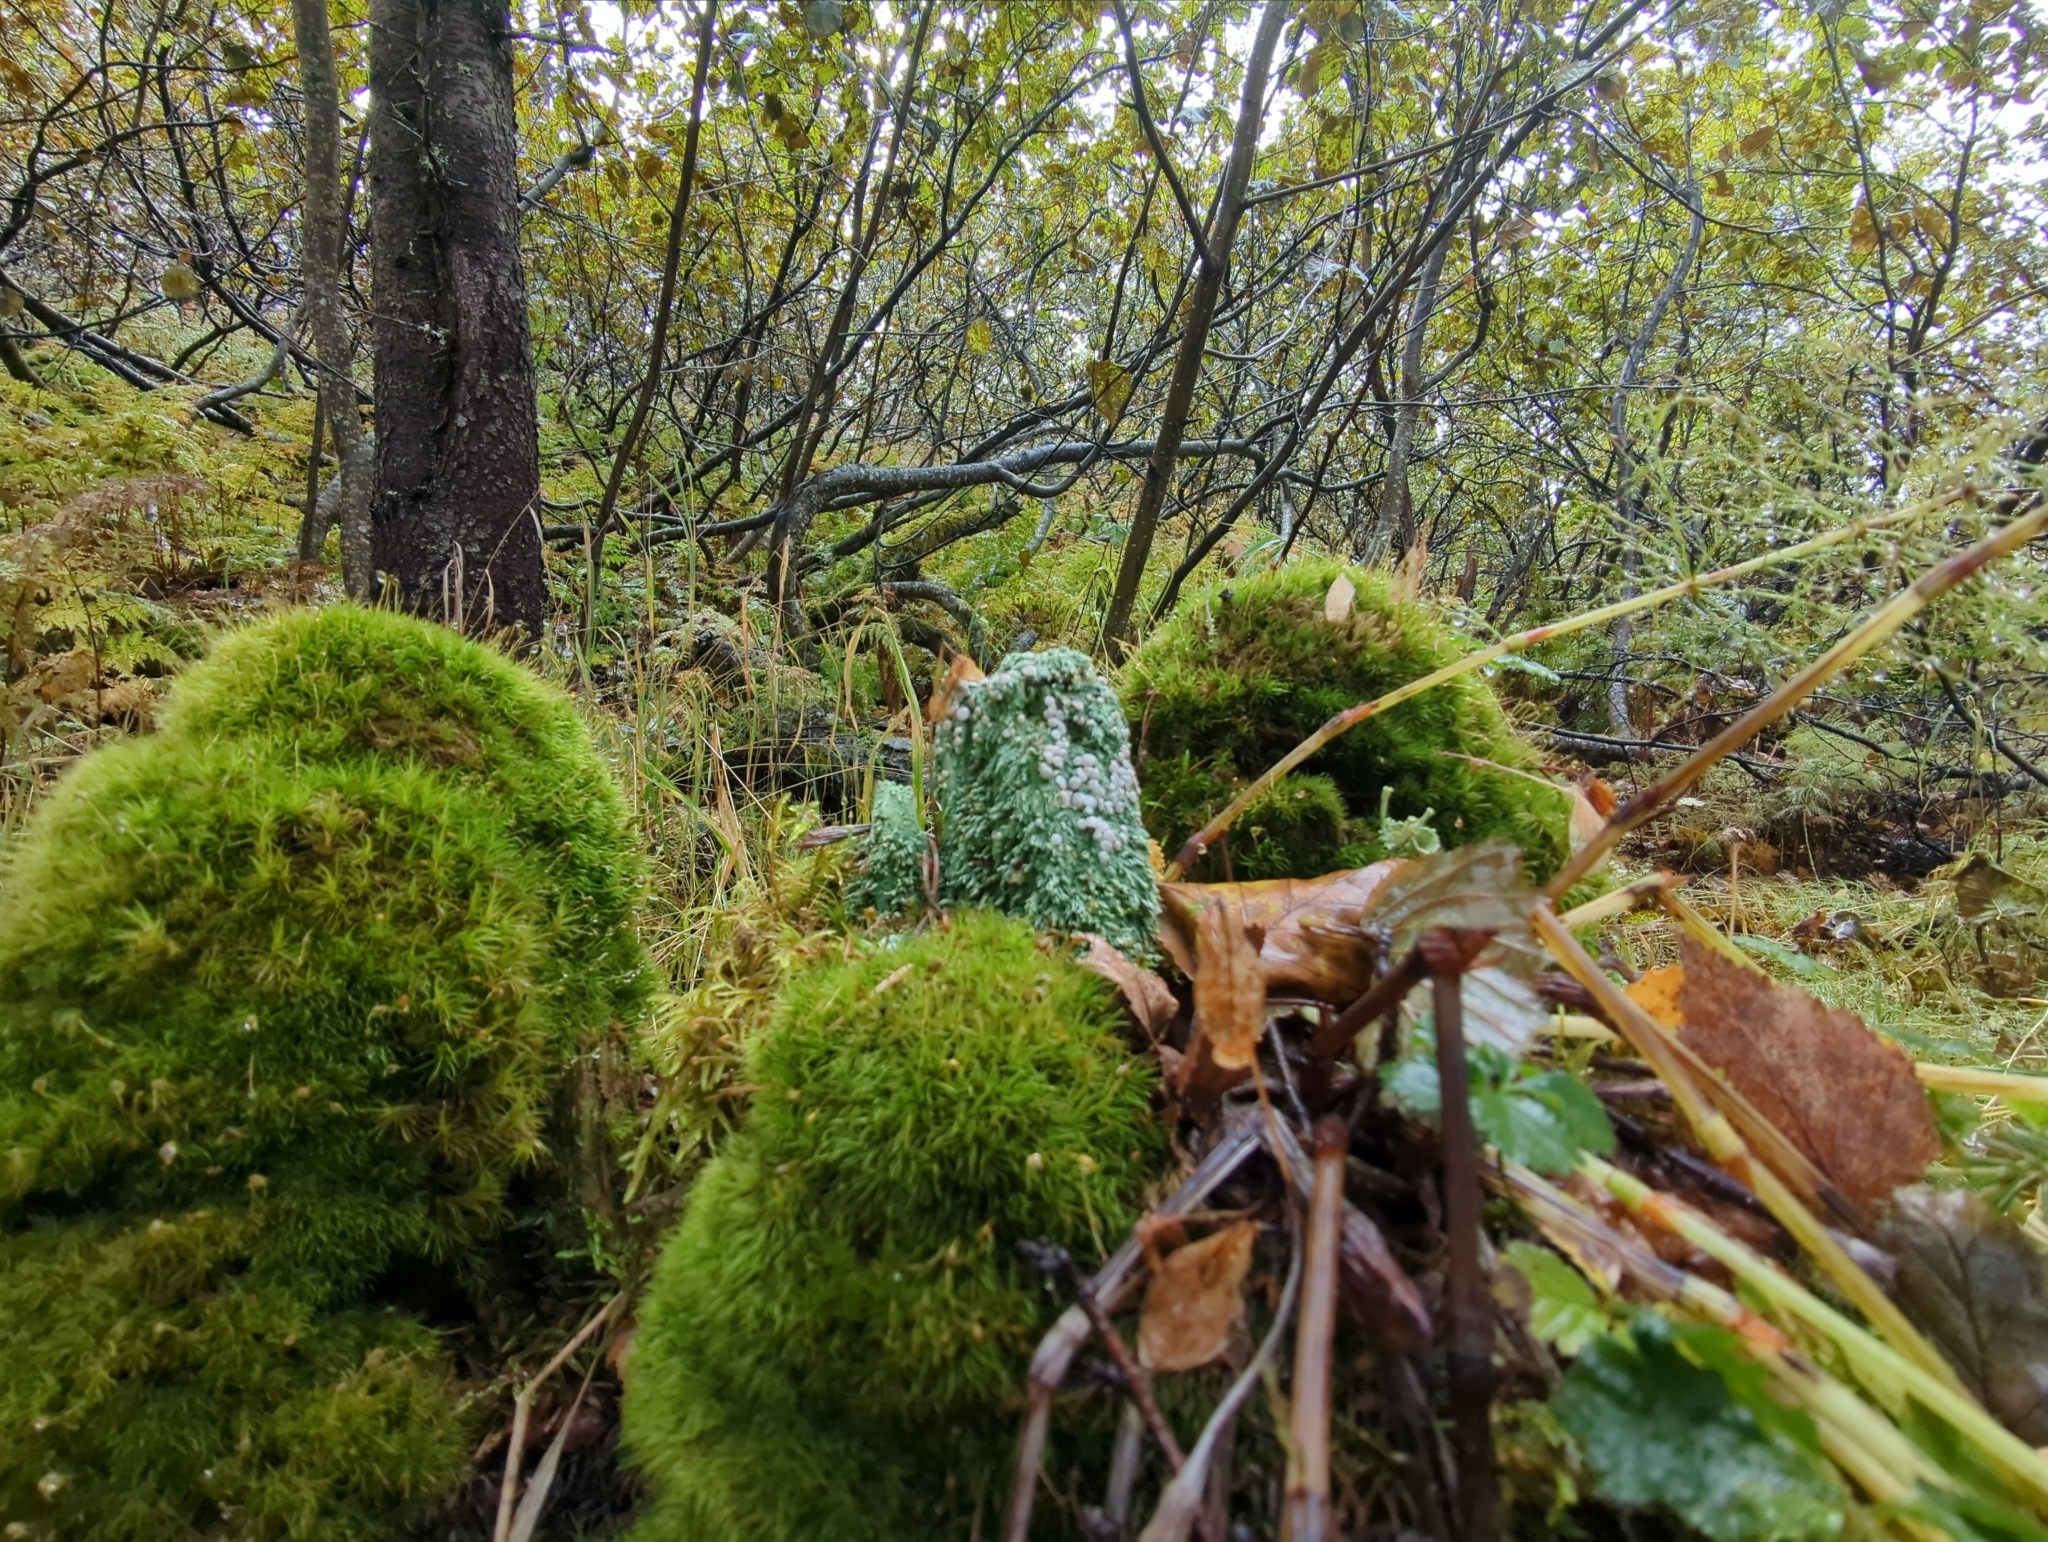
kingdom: Fungi
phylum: Ascomycota
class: Lecanoromycetes
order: Pertusariales
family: Icmadophilaceae
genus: Icmadophila
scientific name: Icmadophila ericetorum
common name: Candy lichen
